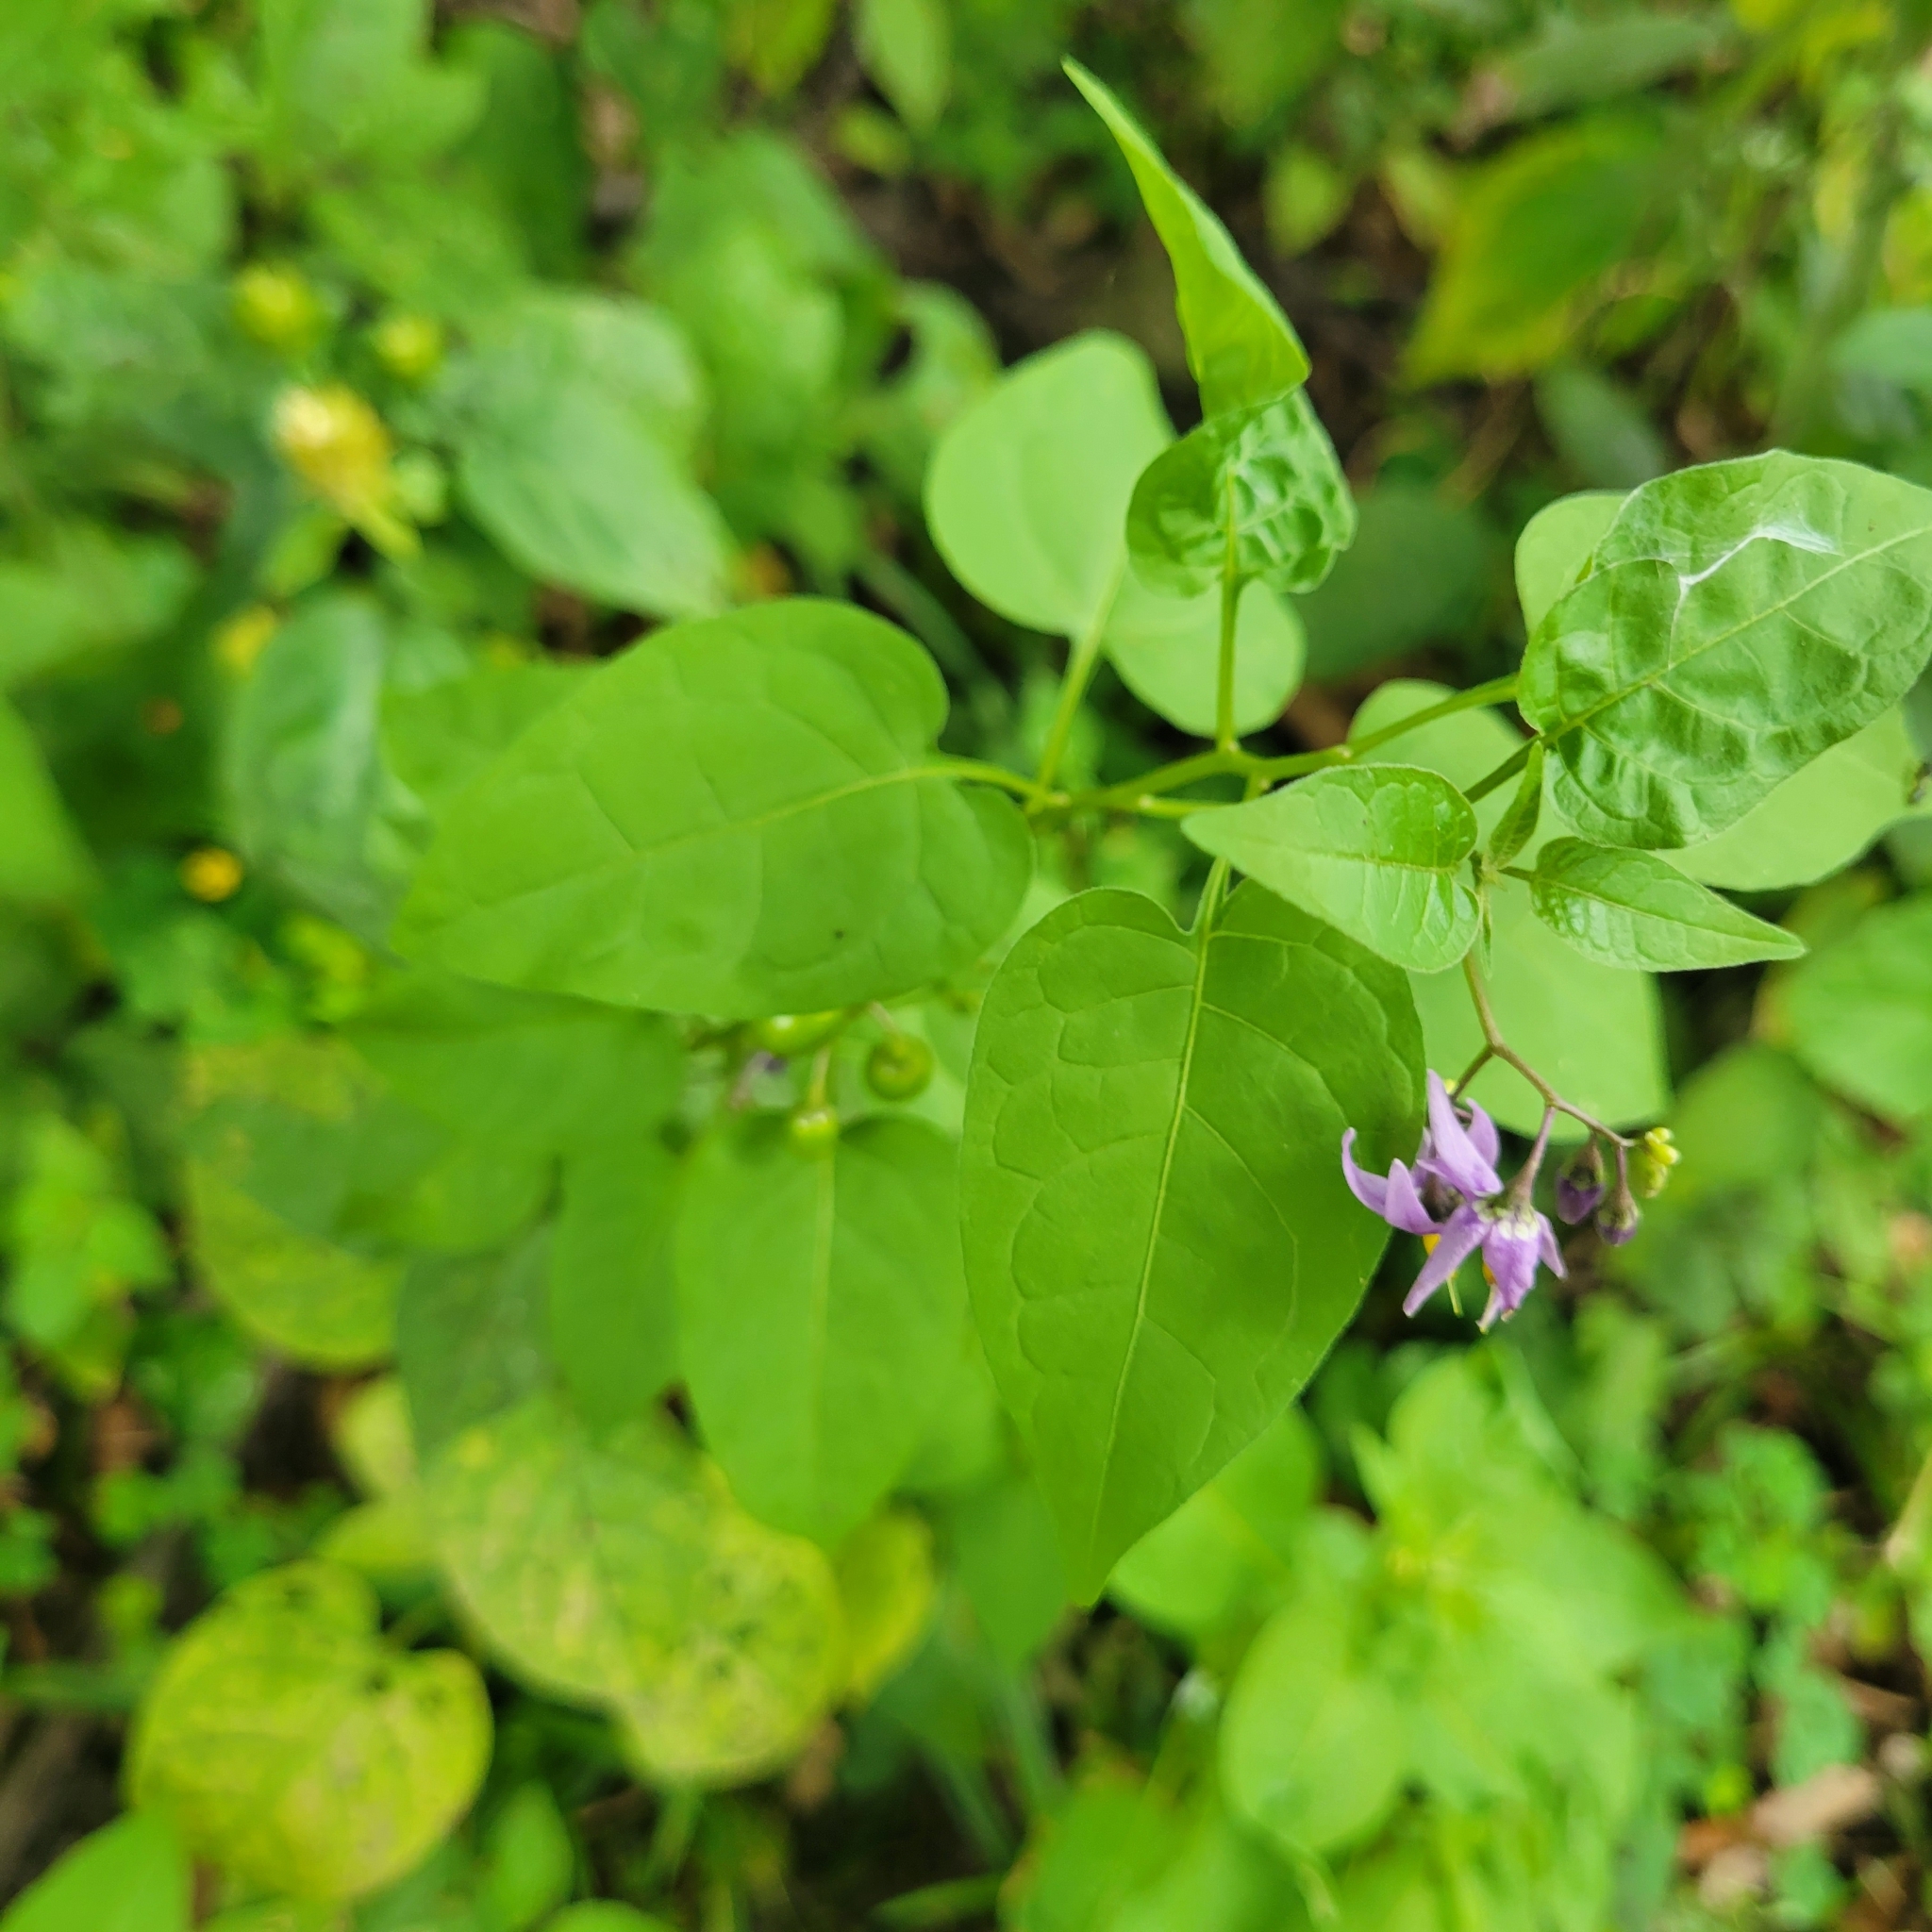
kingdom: Plantae
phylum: Tracheophyta
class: Magnoliopsida
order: Solanales
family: Solanaceae
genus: Solanum
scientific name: Solanum dulcamara
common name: Climbing nightshade
